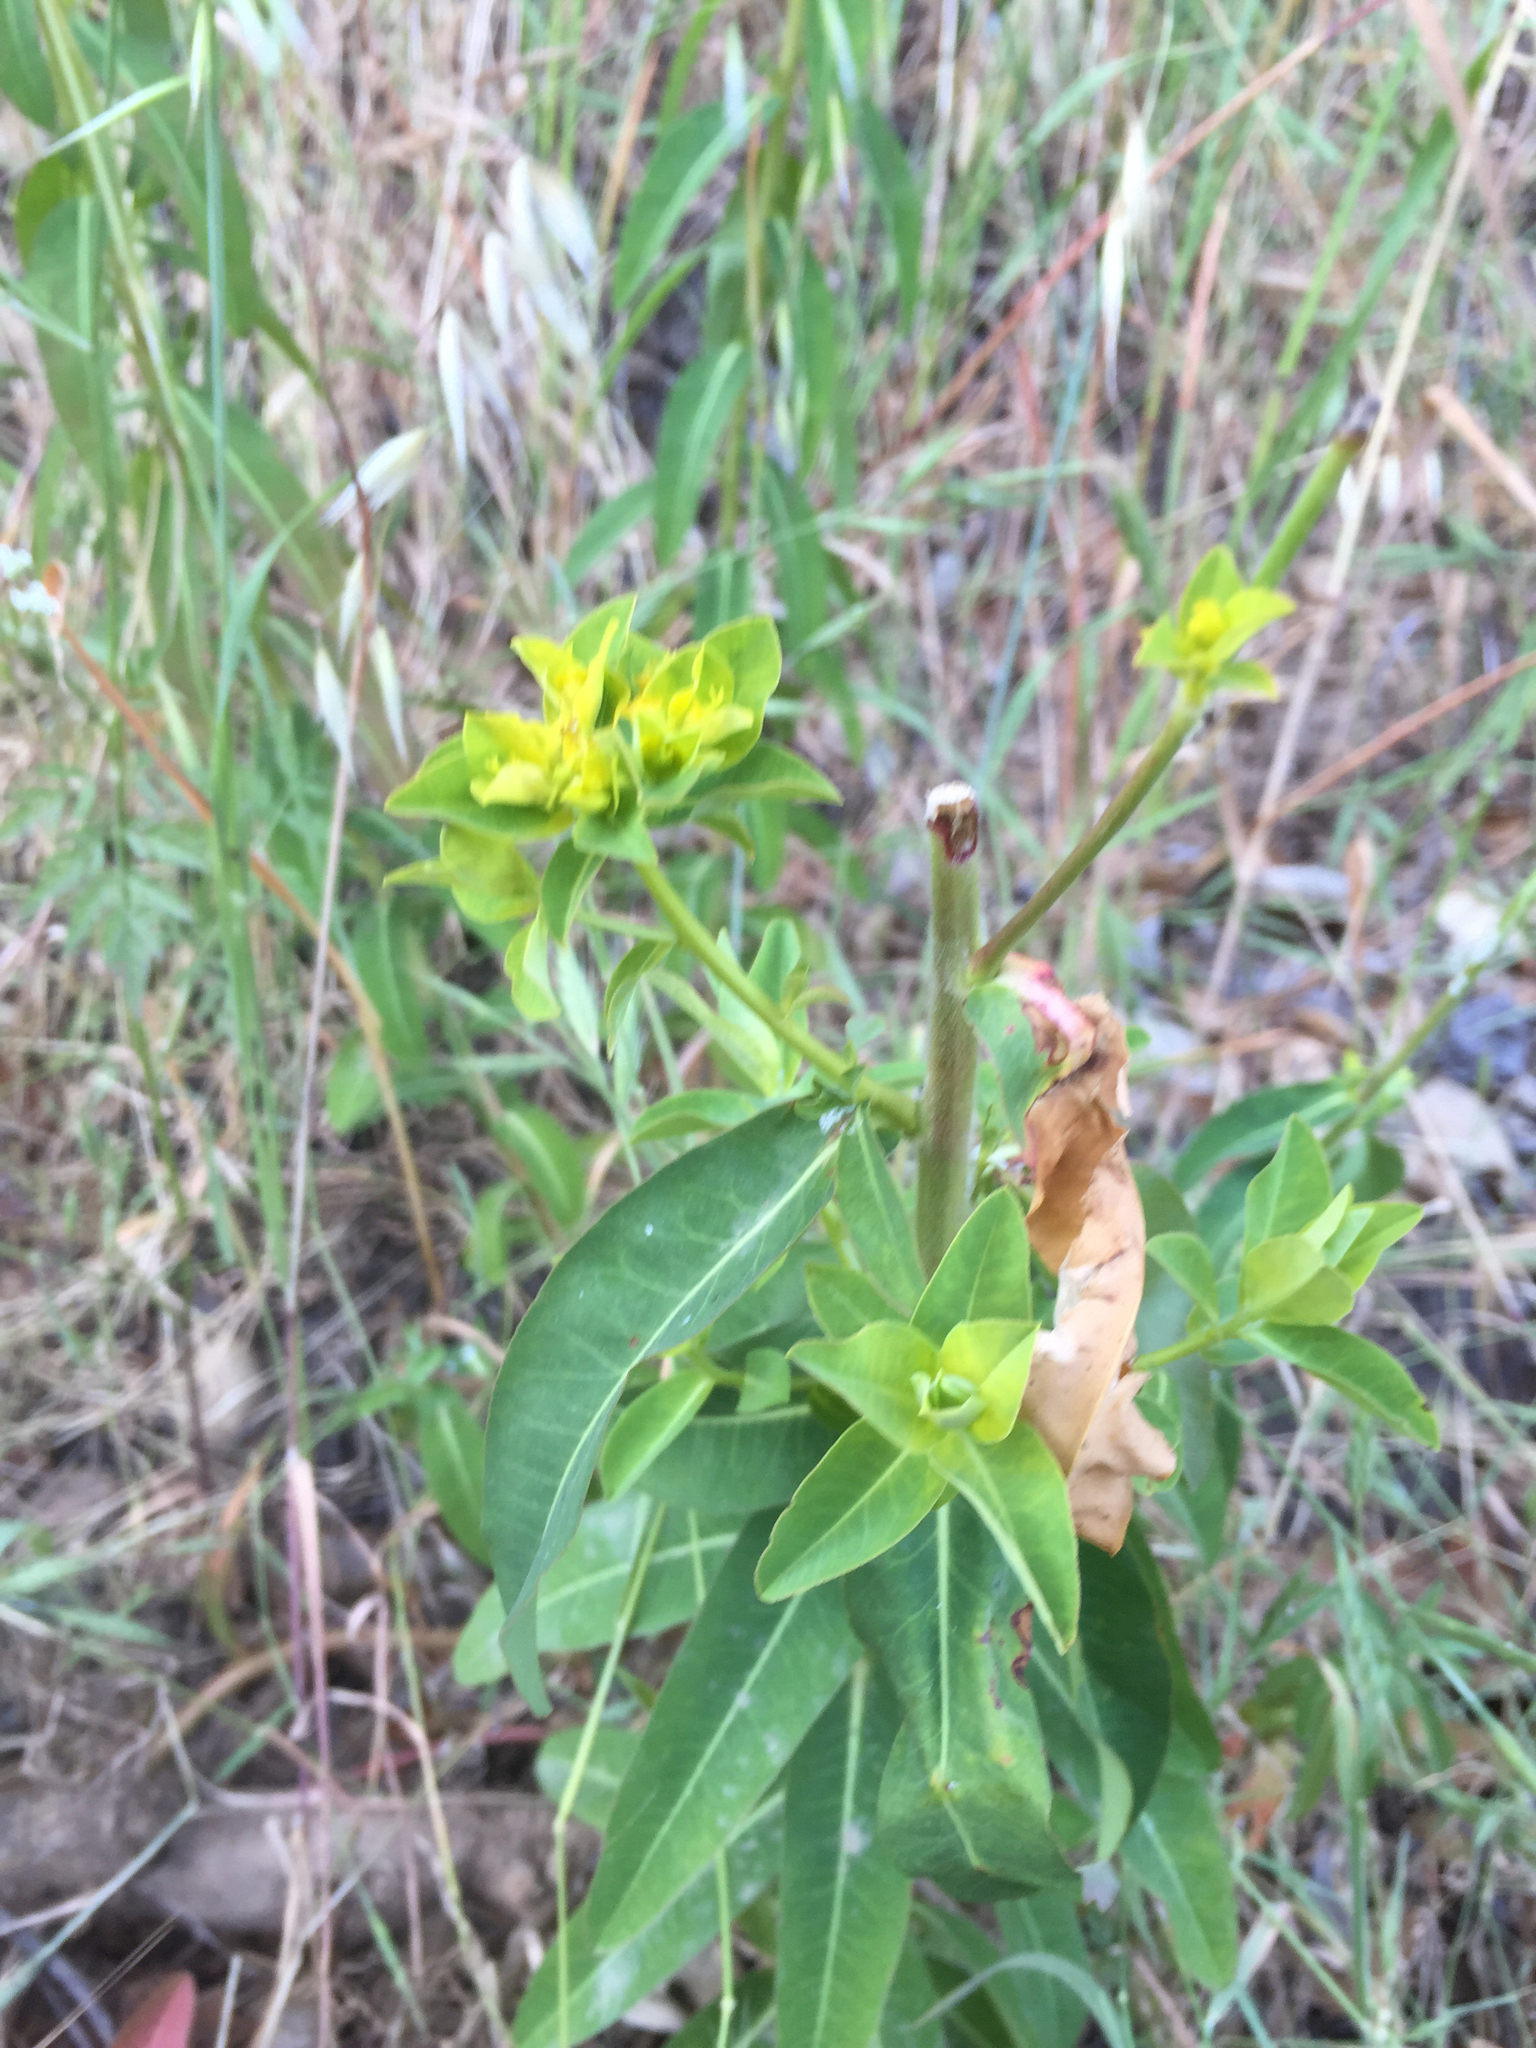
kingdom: Plantae
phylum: Tracheophyta
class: Magnoliopsida
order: Malpighiales
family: Euphorbiaceae
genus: Euphorbia
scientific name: Euphorbia oblongata
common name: Balkan spurge
